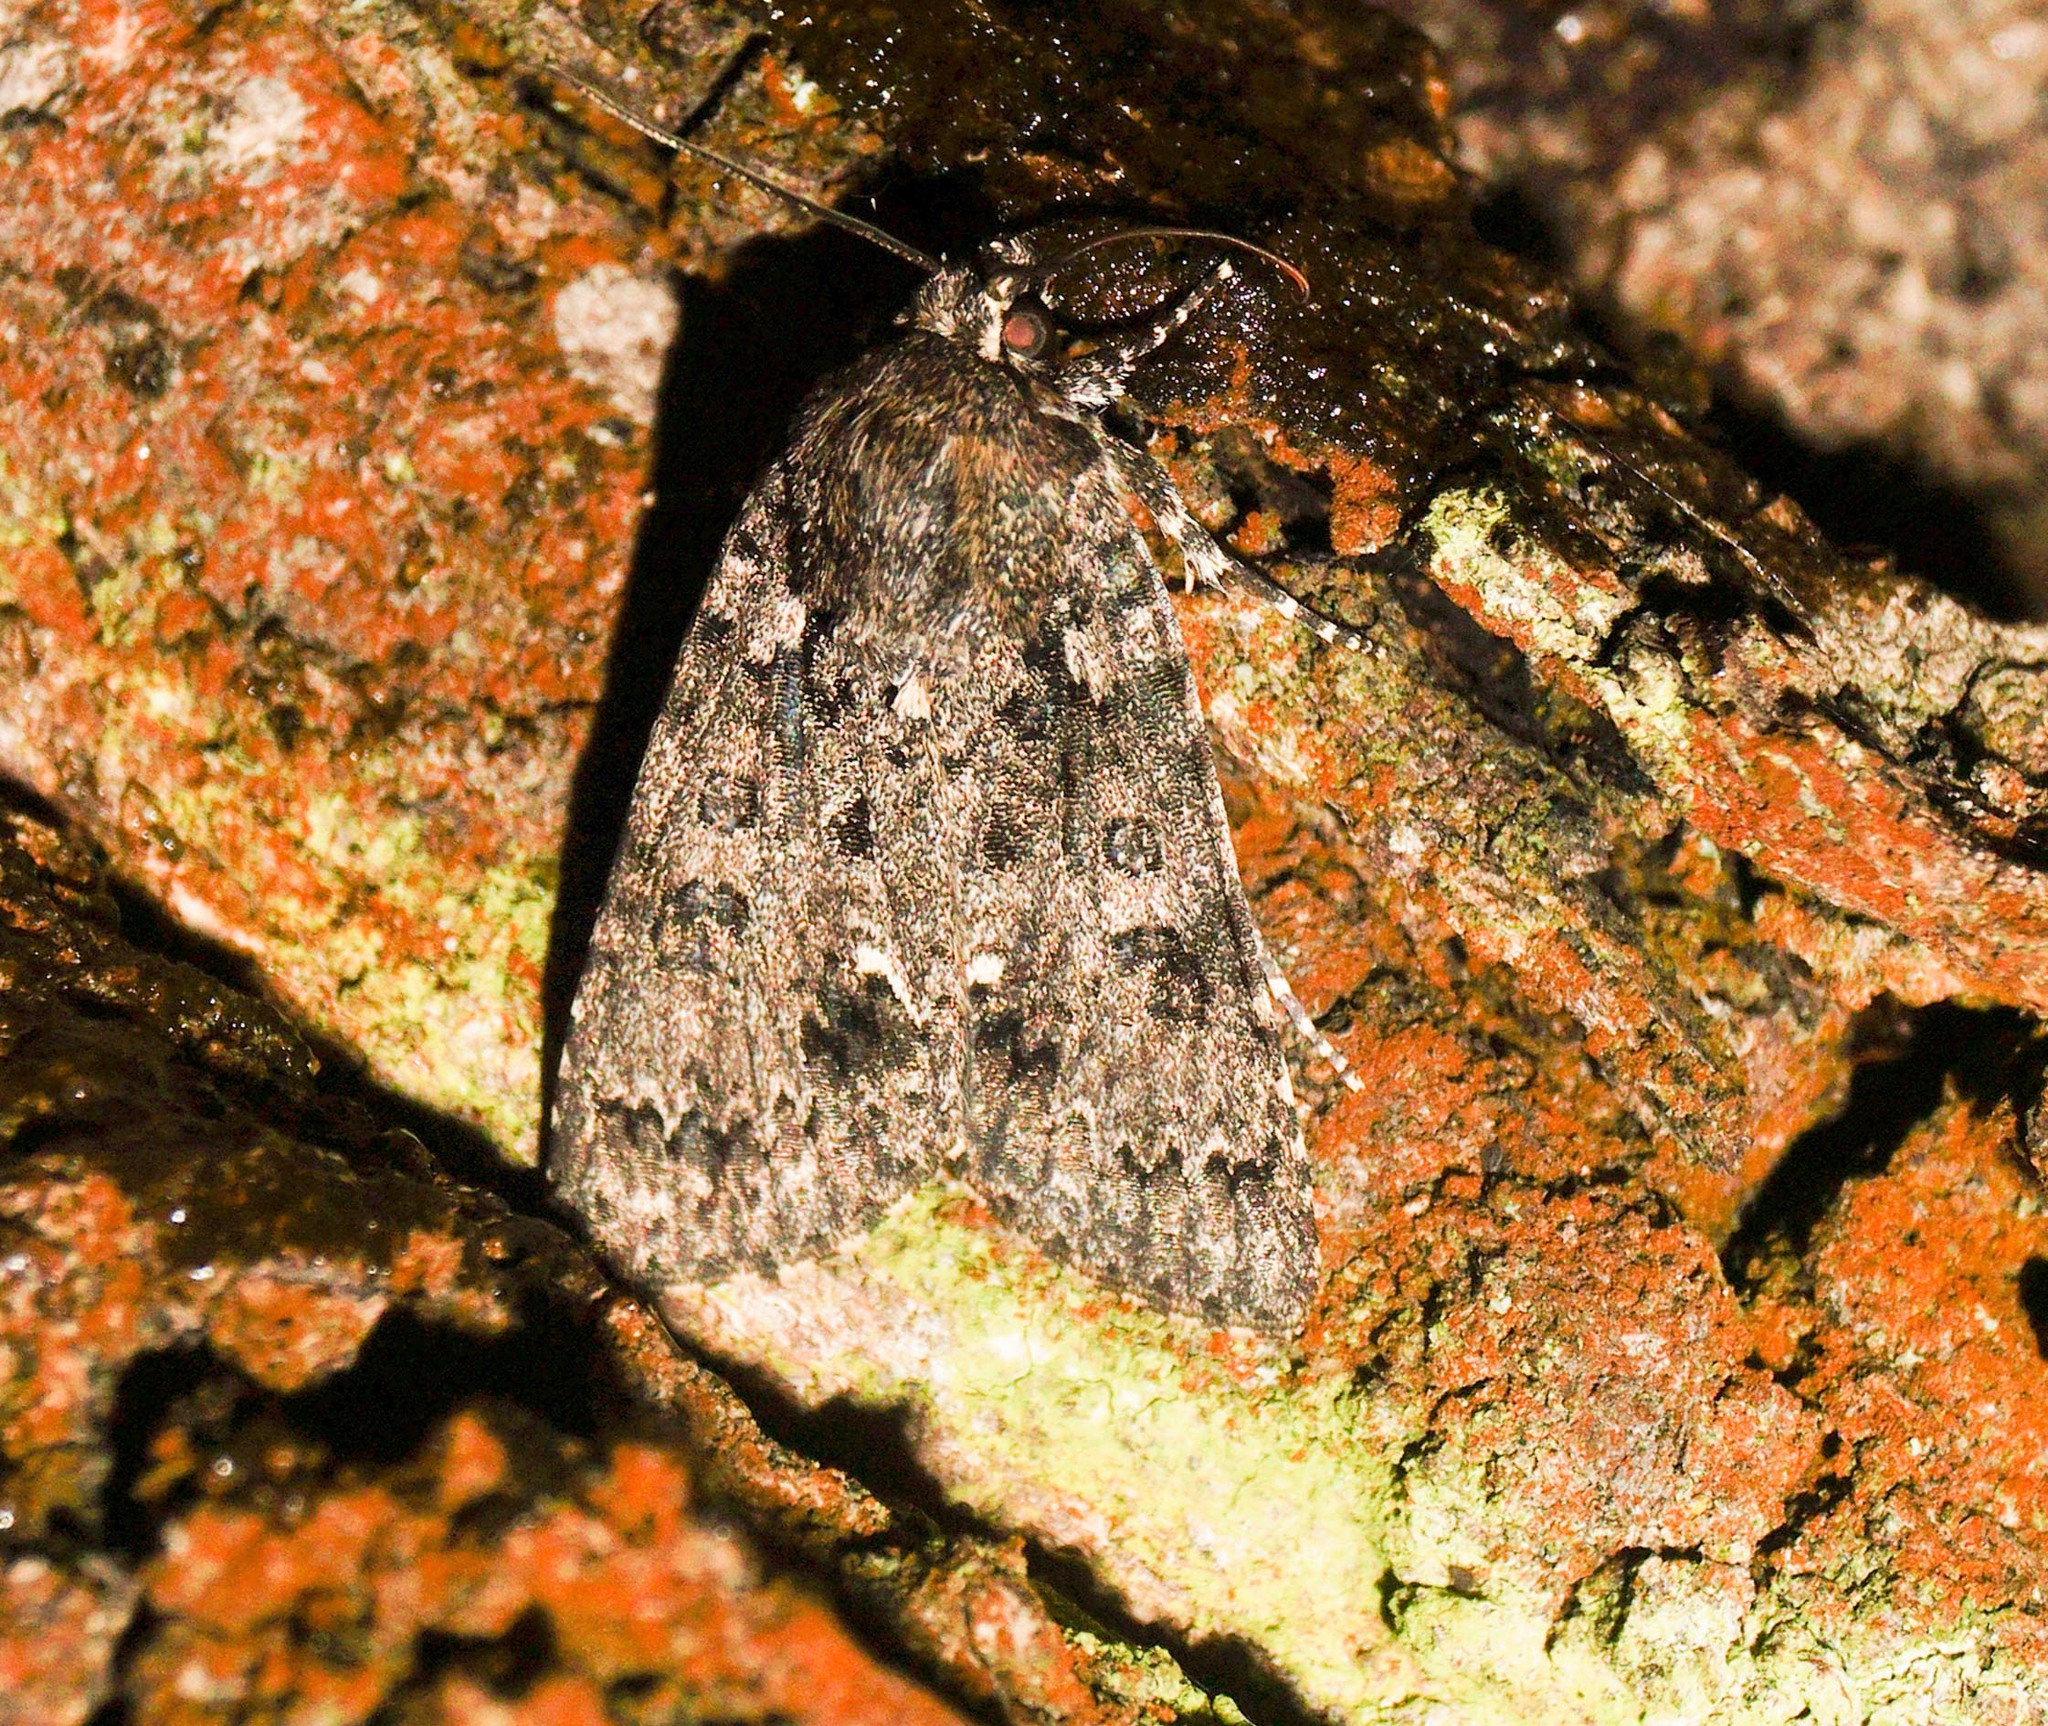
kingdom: Animalia
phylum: Arthropoda
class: Insecta
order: Lepidoptera
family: Noctuidae
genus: Acronicta
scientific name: Acronicta rumicis
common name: Knot grass
